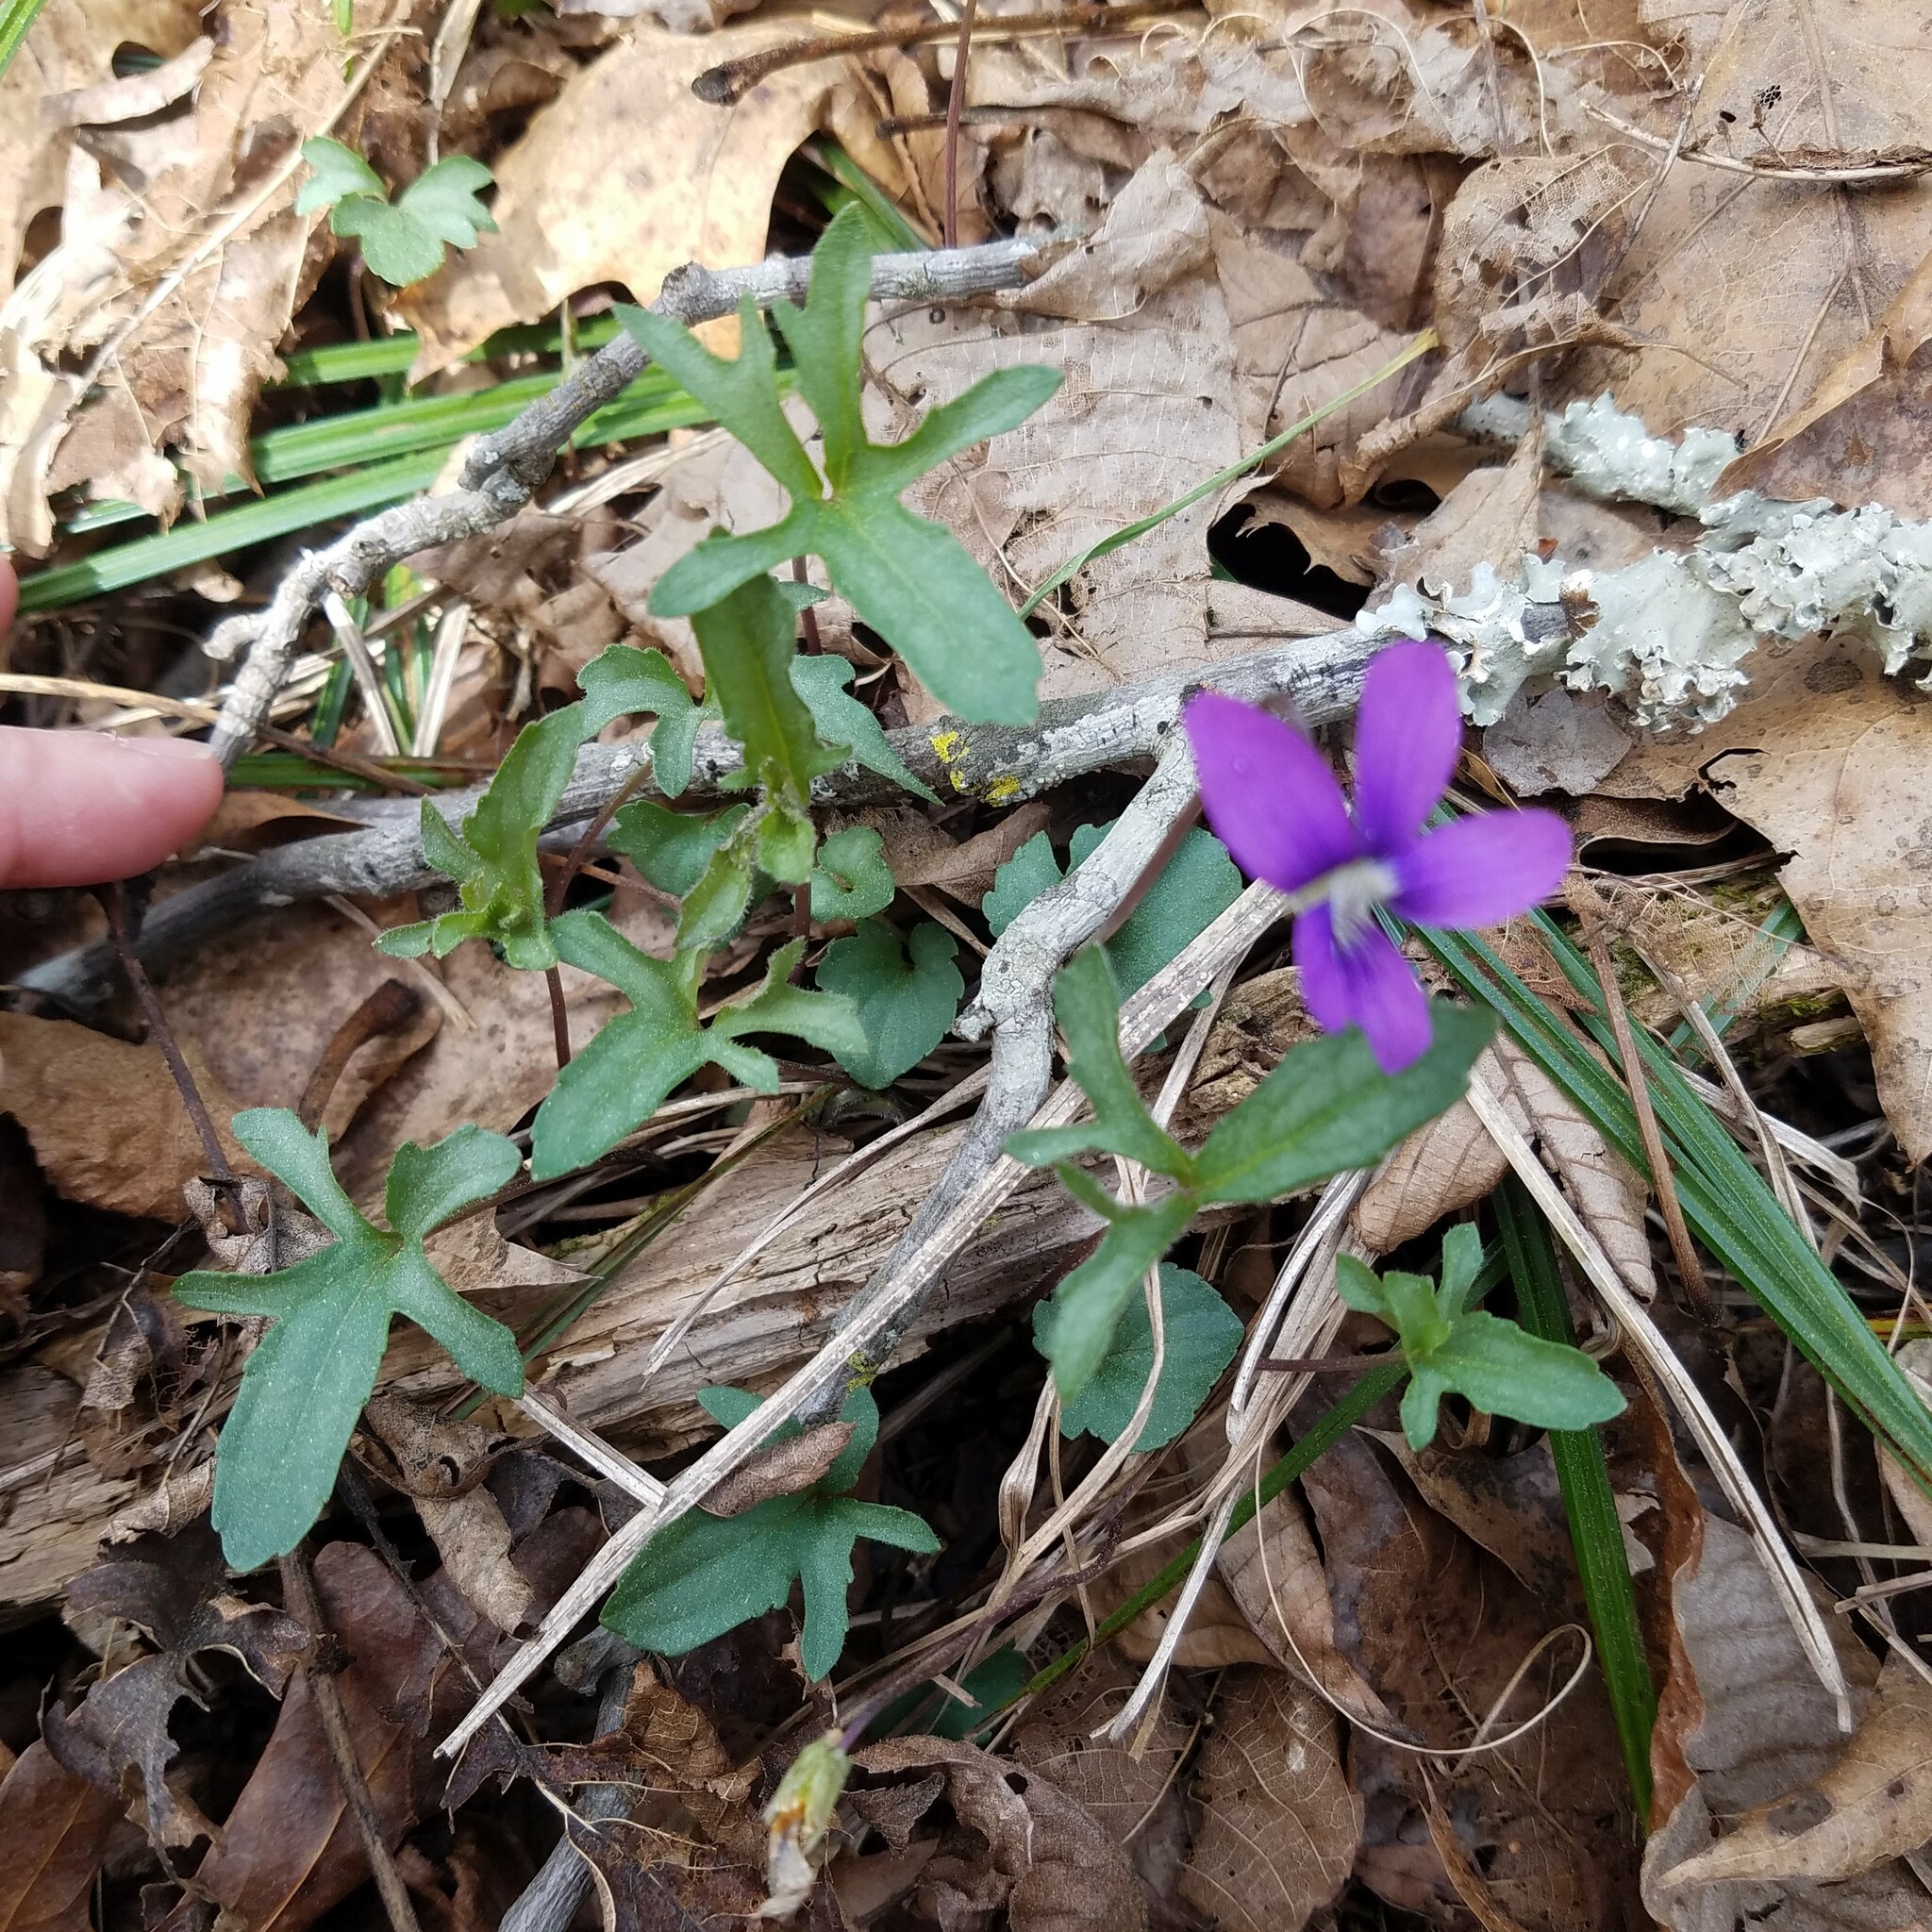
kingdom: Plantae
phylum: Tracheophyta
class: Magnoliopsida
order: Malpighiales
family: Violaceae
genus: Viola
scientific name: Viola palmata
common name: Early blue violet
